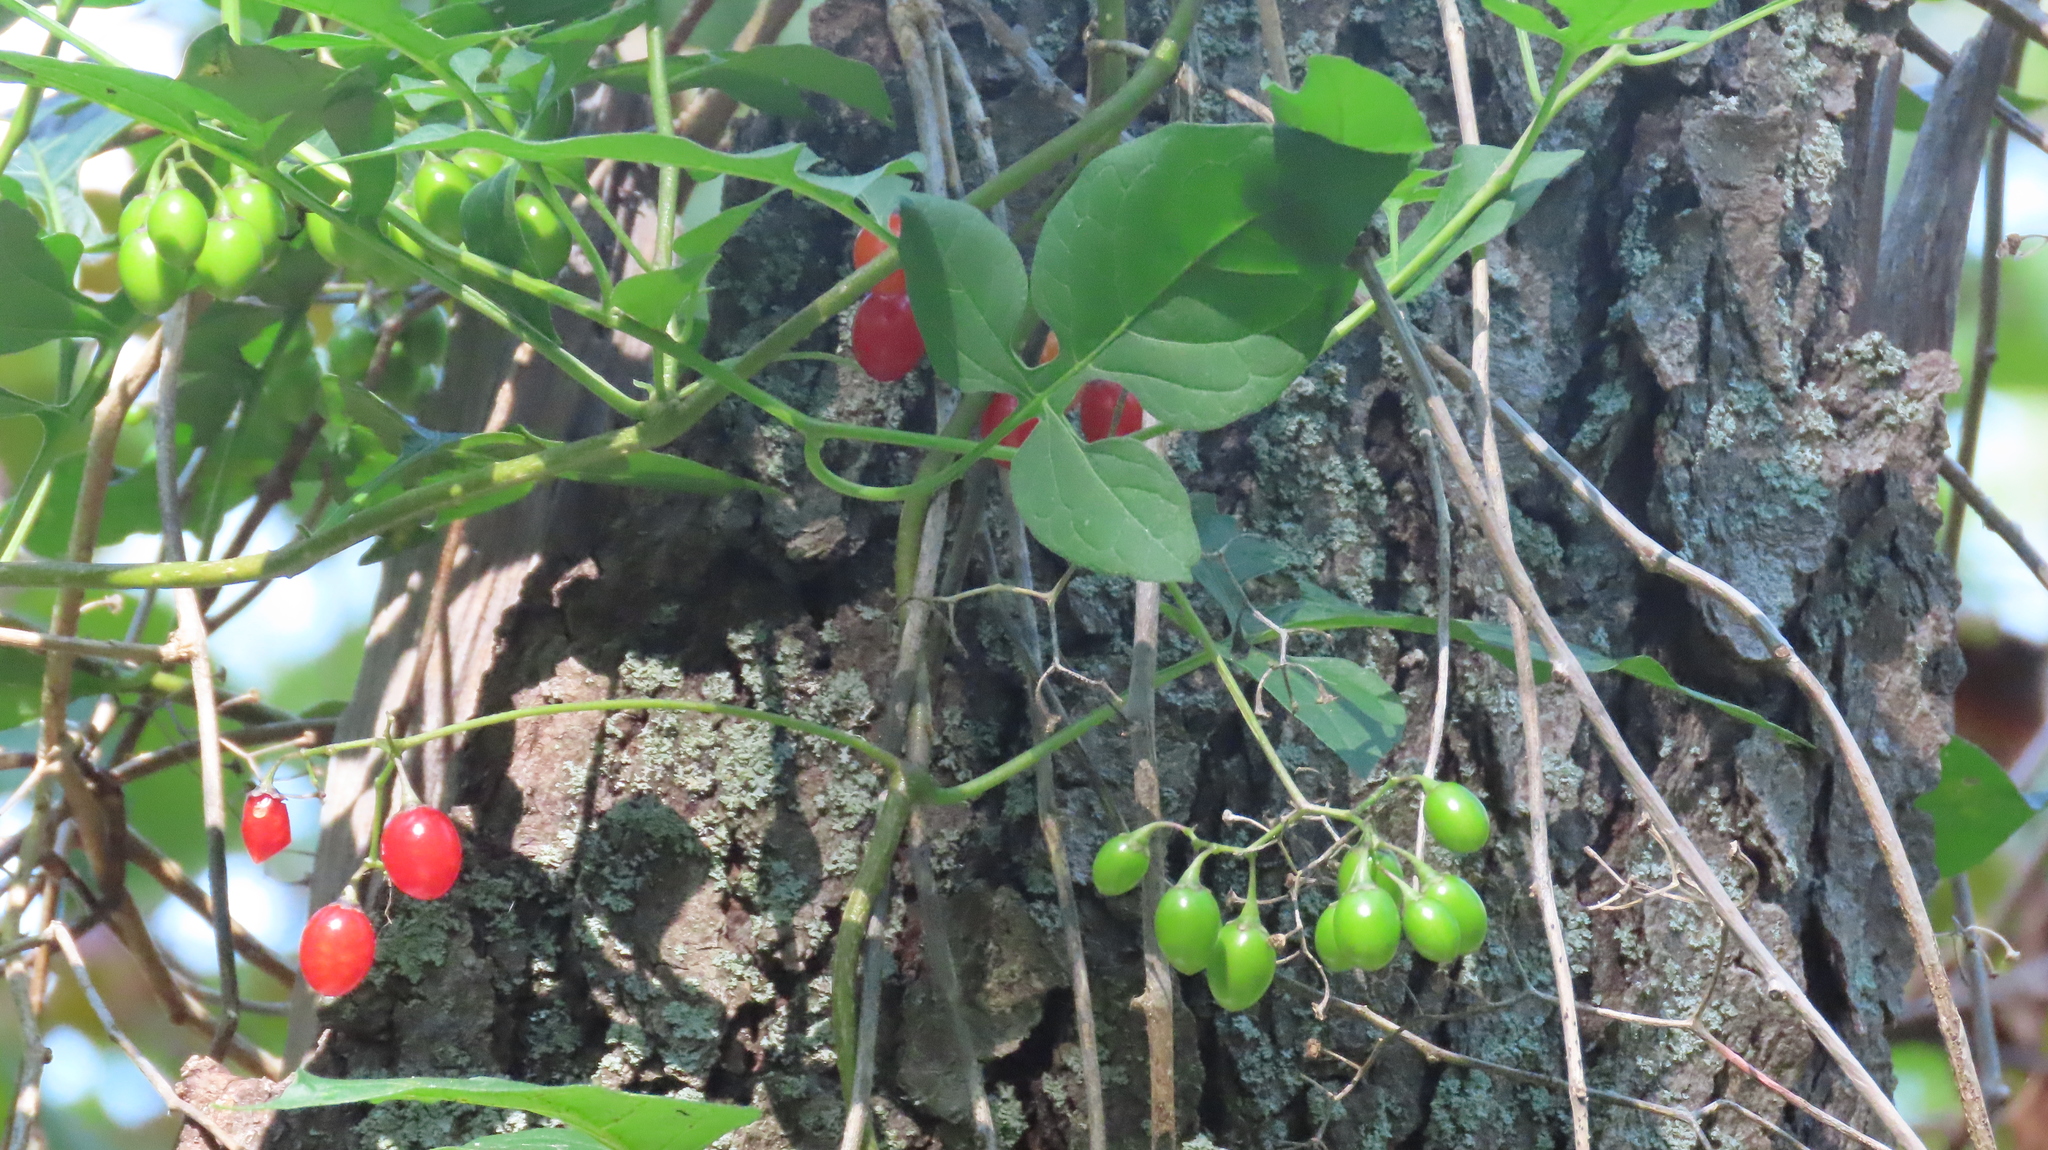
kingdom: Plantae
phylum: Tracheophyta
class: Magnoliopsida
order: Solanales
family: Solanaceae
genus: Solanum
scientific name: Solanum dulcamara
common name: Climbing nightshade
